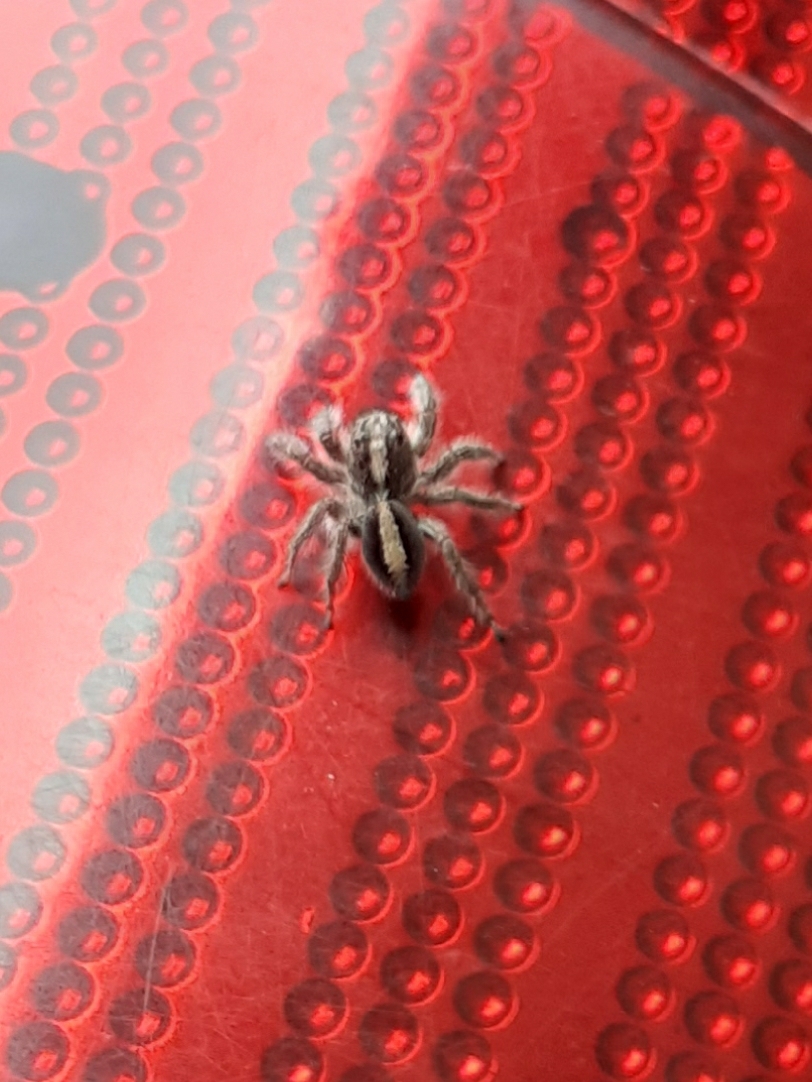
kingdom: Animalia
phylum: Arthropoda
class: Arachnida
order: Araneae
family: Salticidae
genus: Megafreya
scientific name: Megafreya sutrix
